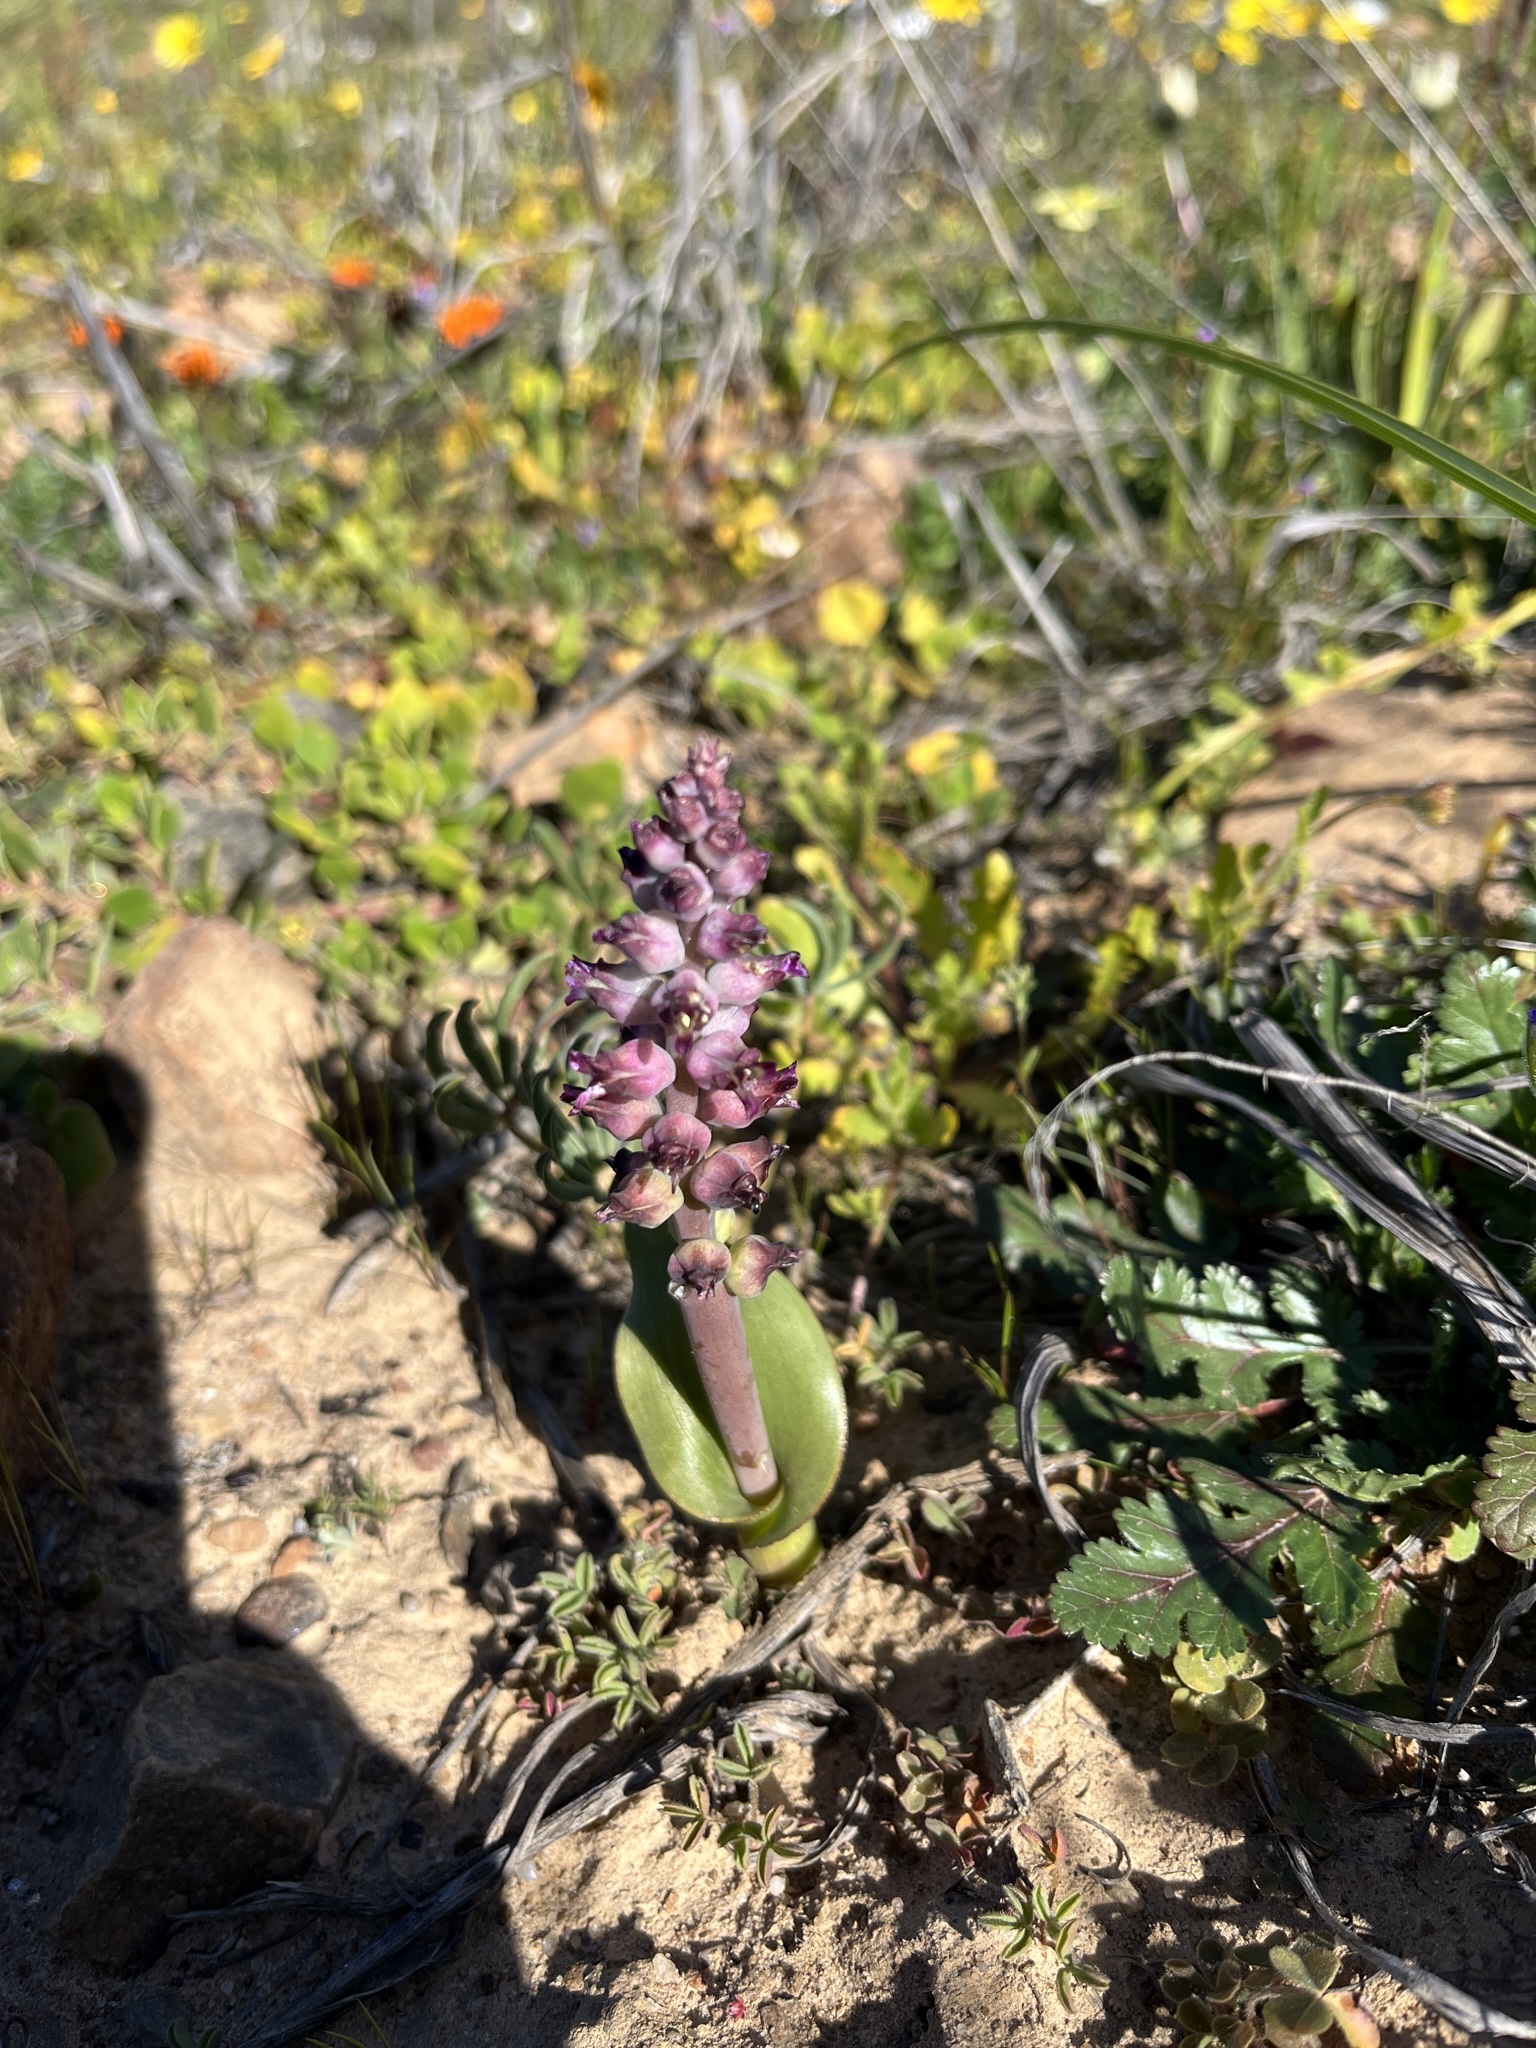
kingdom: Plantae
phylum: Tracheophyta
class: Liliopsida
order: Asparagales
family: Asparagaceae
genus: Lachenalia
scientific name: Lachenalia elegans
